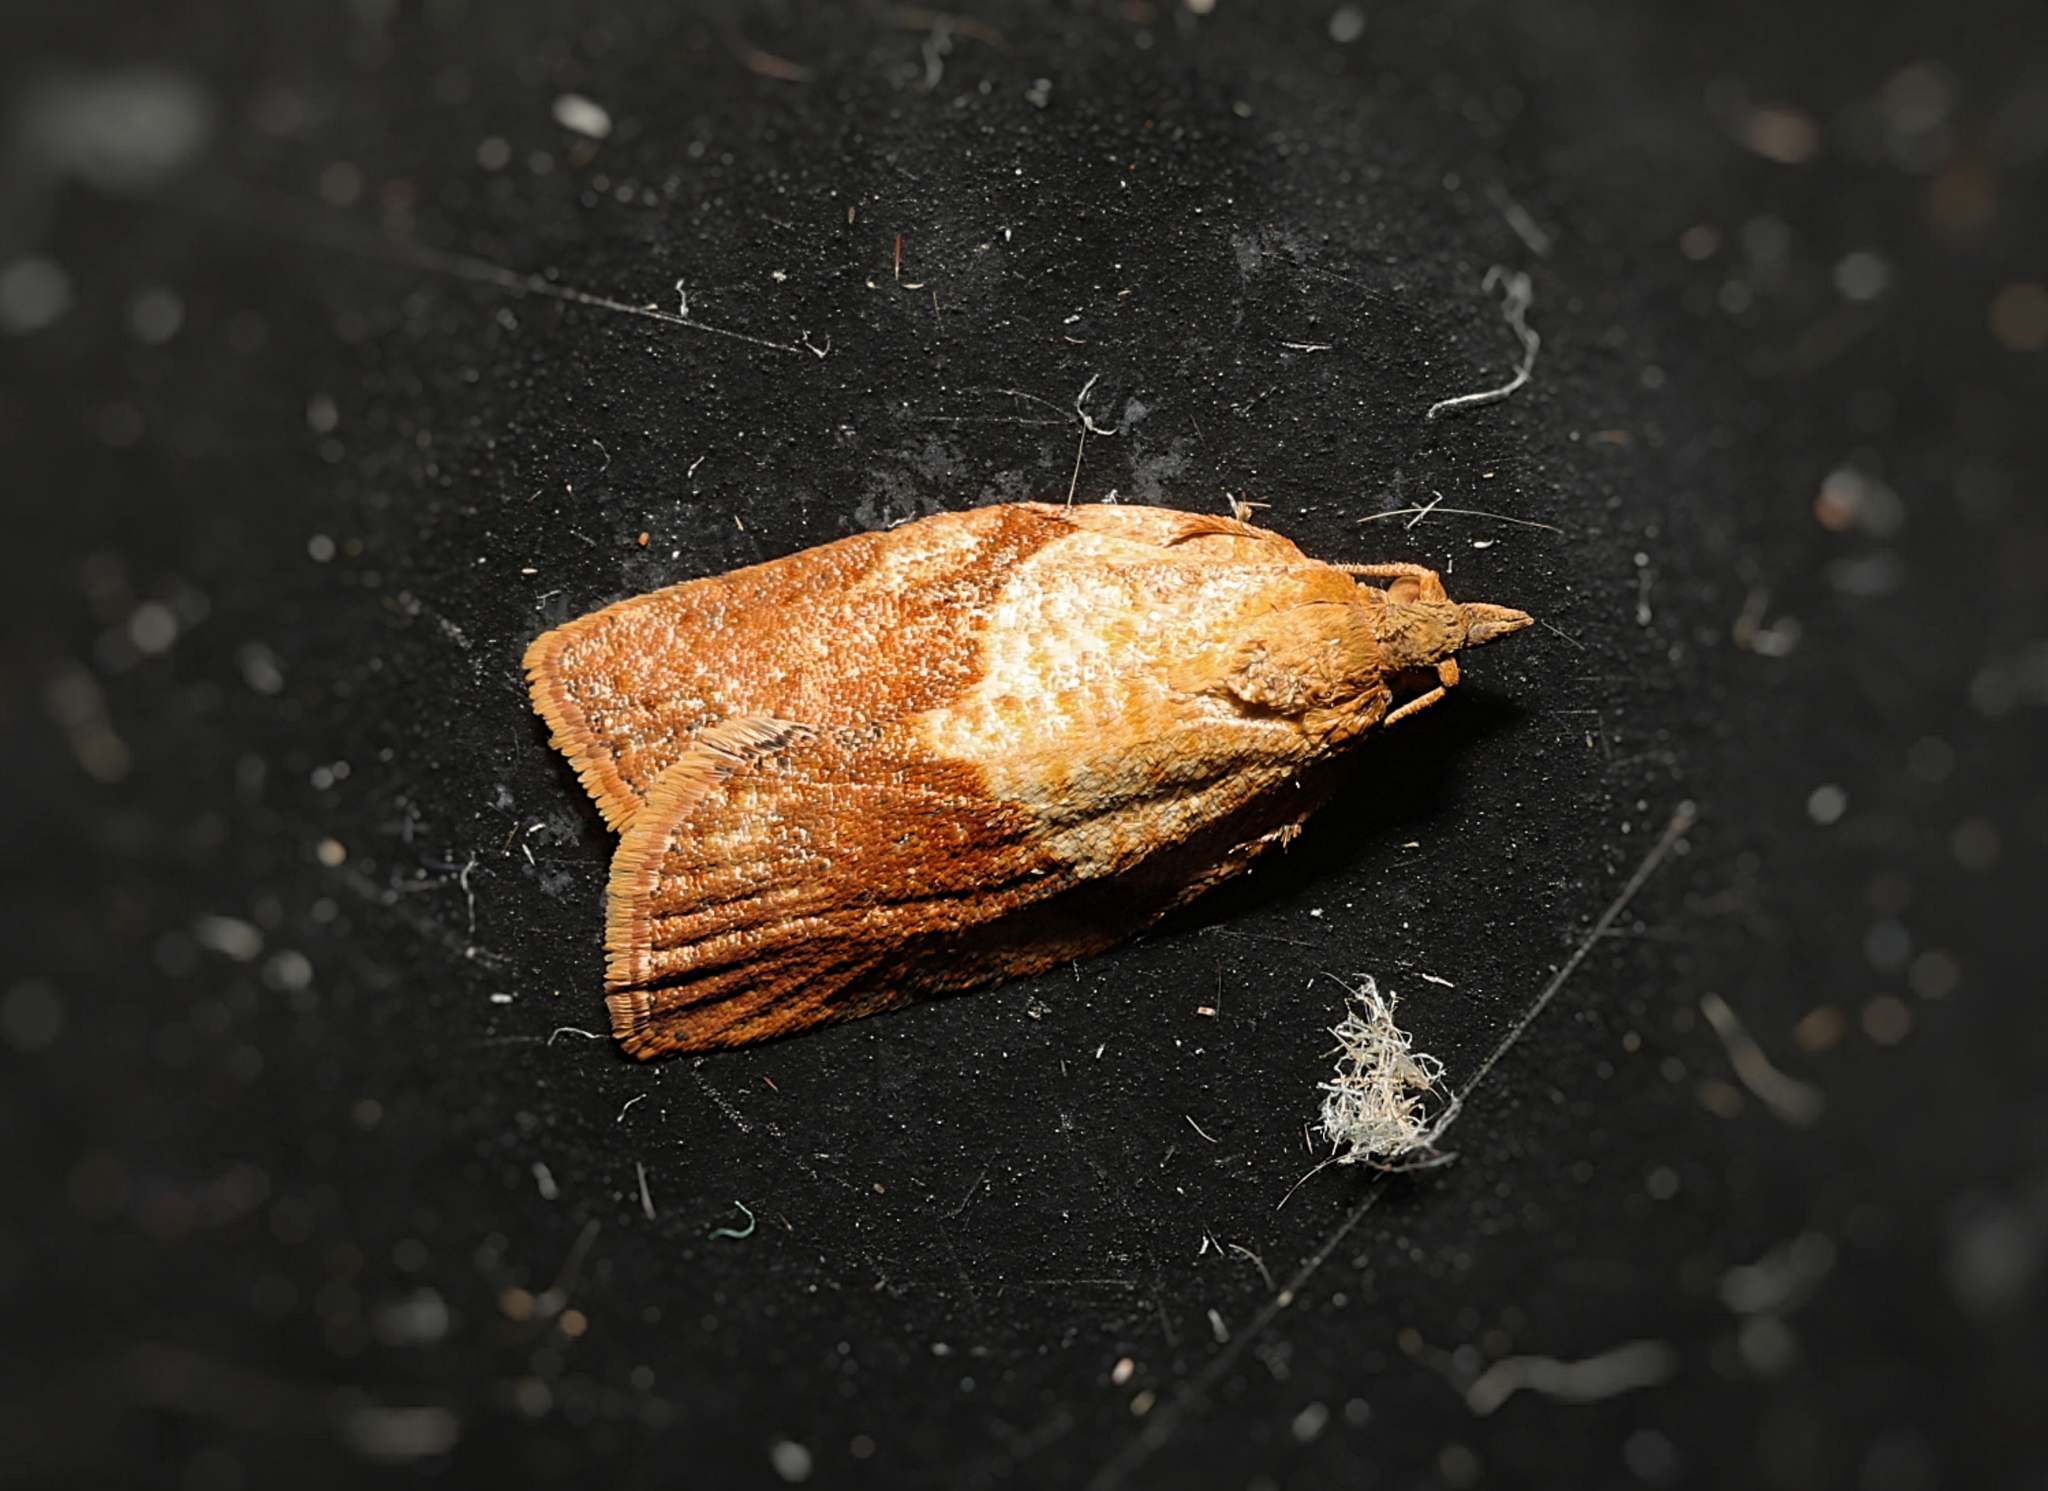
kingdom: Animalia
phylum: Arthropoda
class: Insecta
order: Lepidoptera
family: Tortricidae
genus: Epiphyas
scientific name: Epiphyas postvittana
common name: Light brown apple moth
